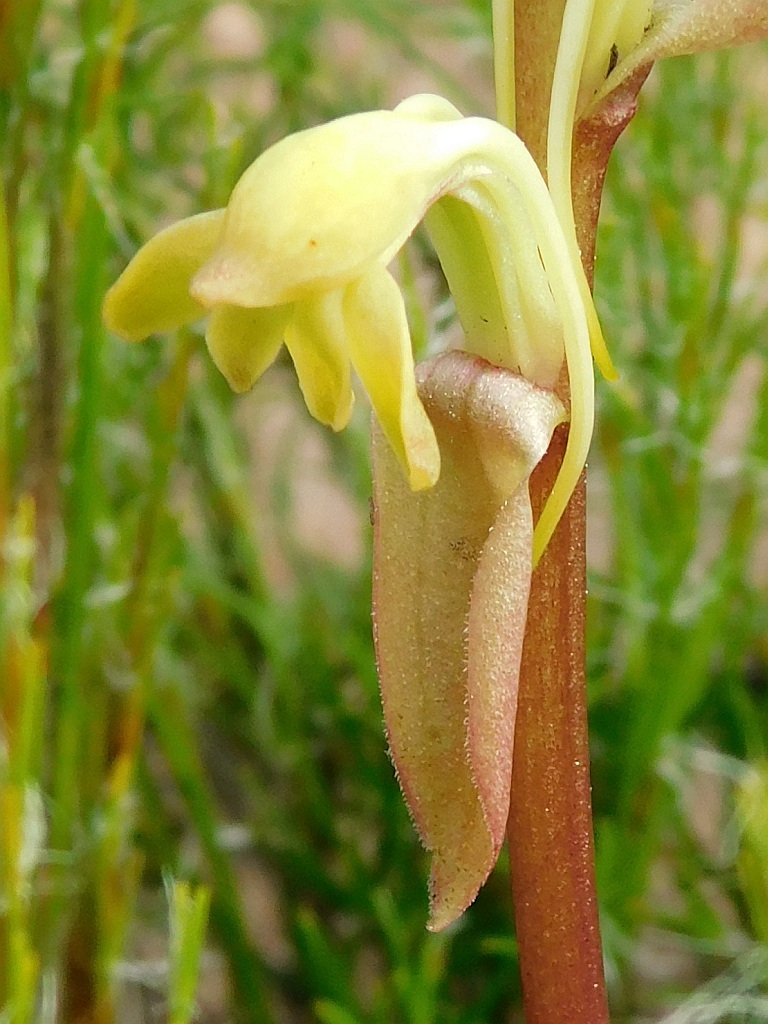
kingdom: Plantae
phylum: Tracheophyta
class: Liliopsida
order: Asparagales
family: Orchidaceae
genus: Satyrium
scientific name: Satyrium bicorne
